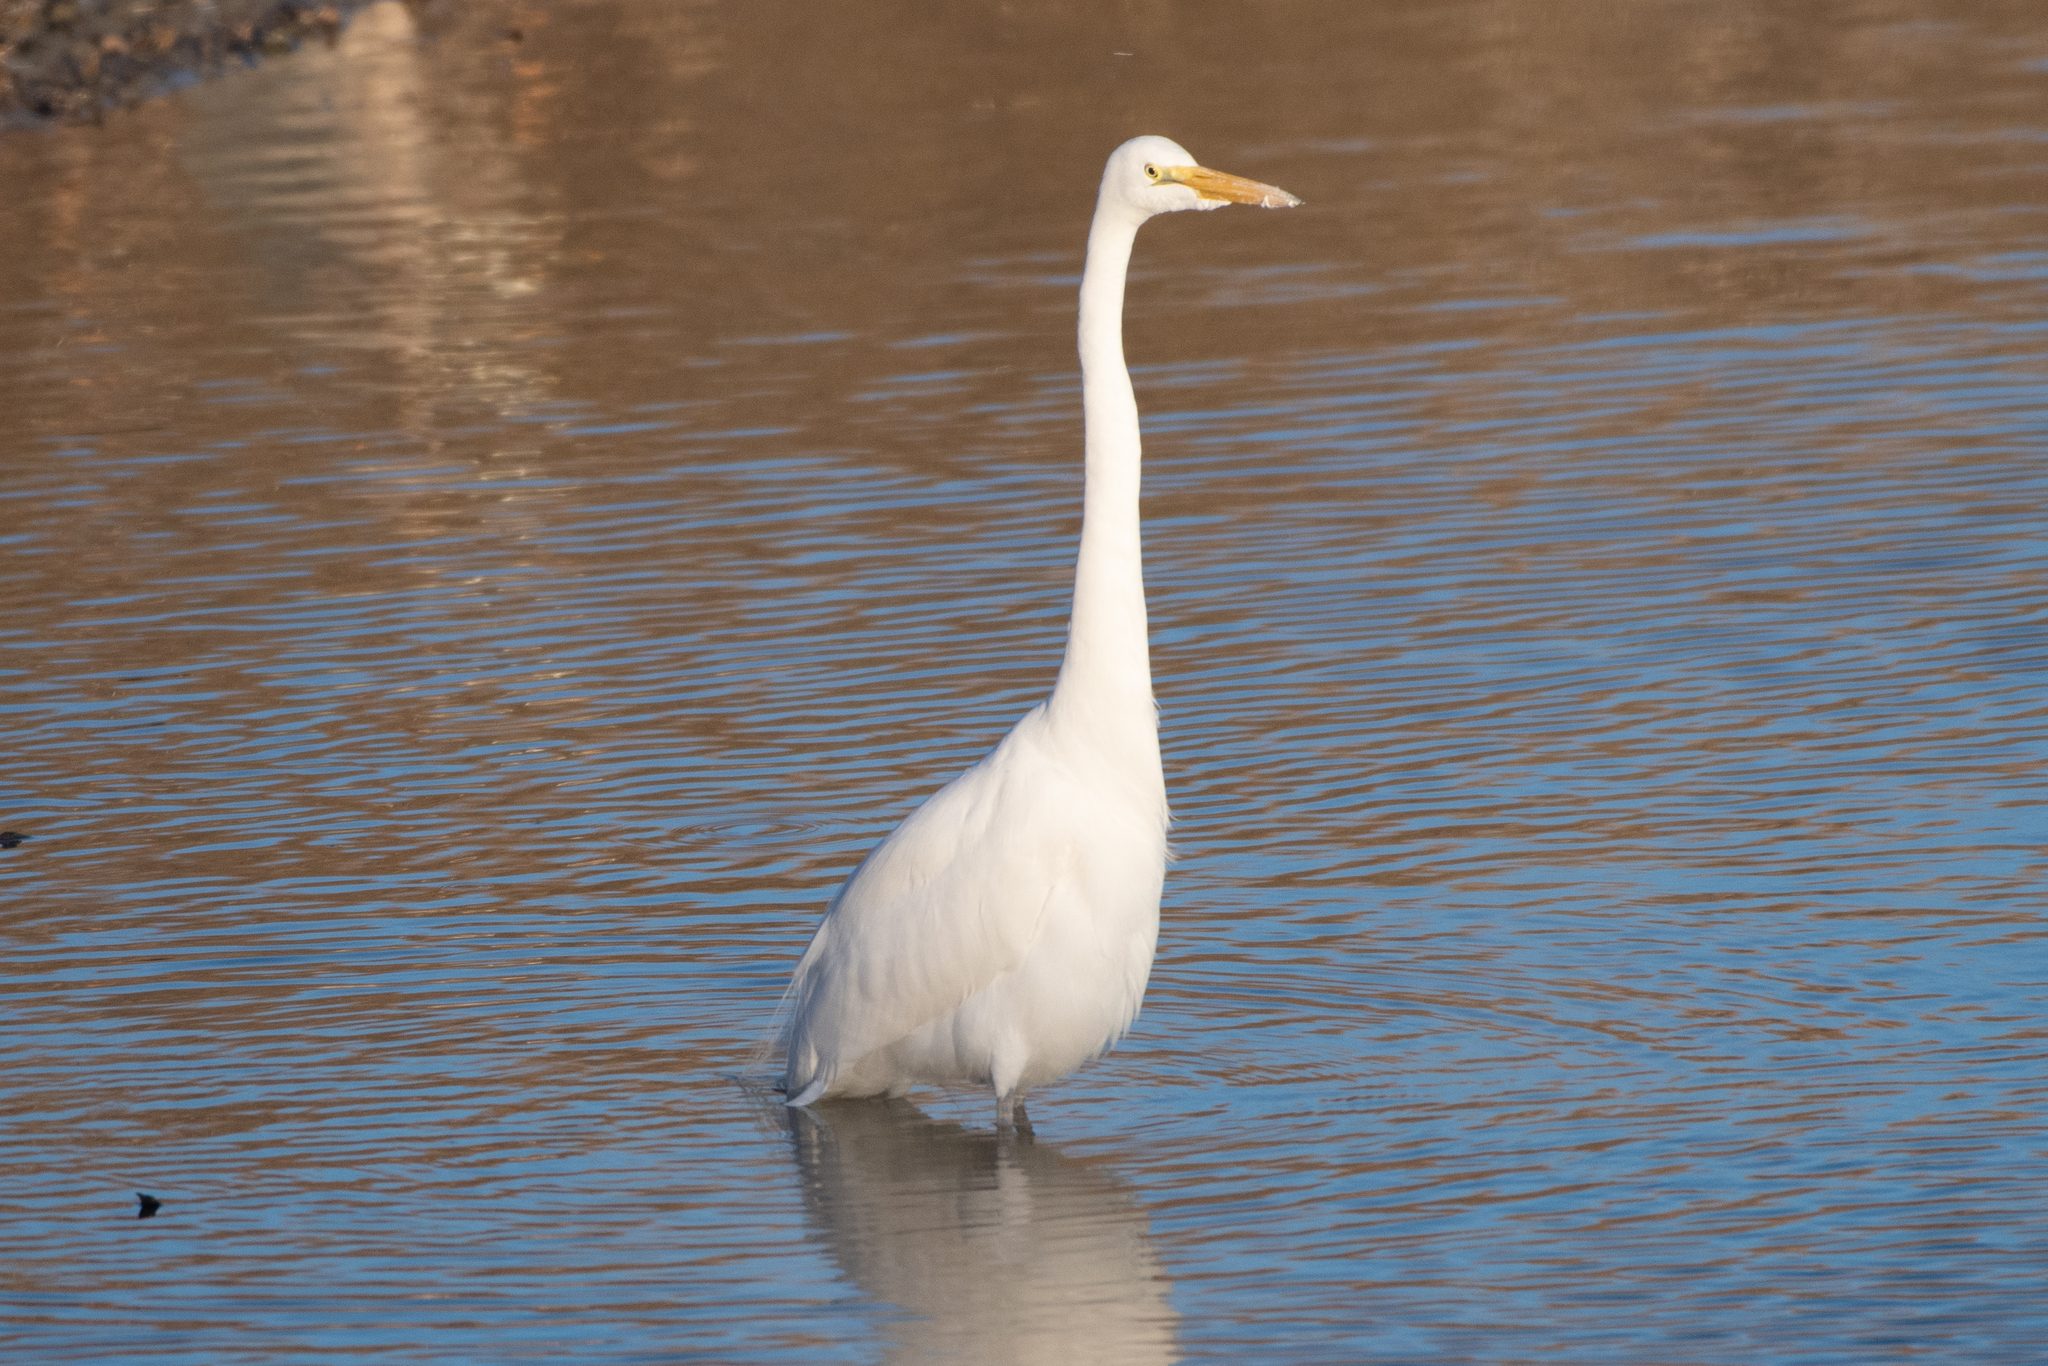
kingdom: Animalia
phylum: Chordata
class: Aves
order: Pelecaniformes
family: Ardeidae
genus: Ardea
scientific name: Ardea alba
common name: Great egret
